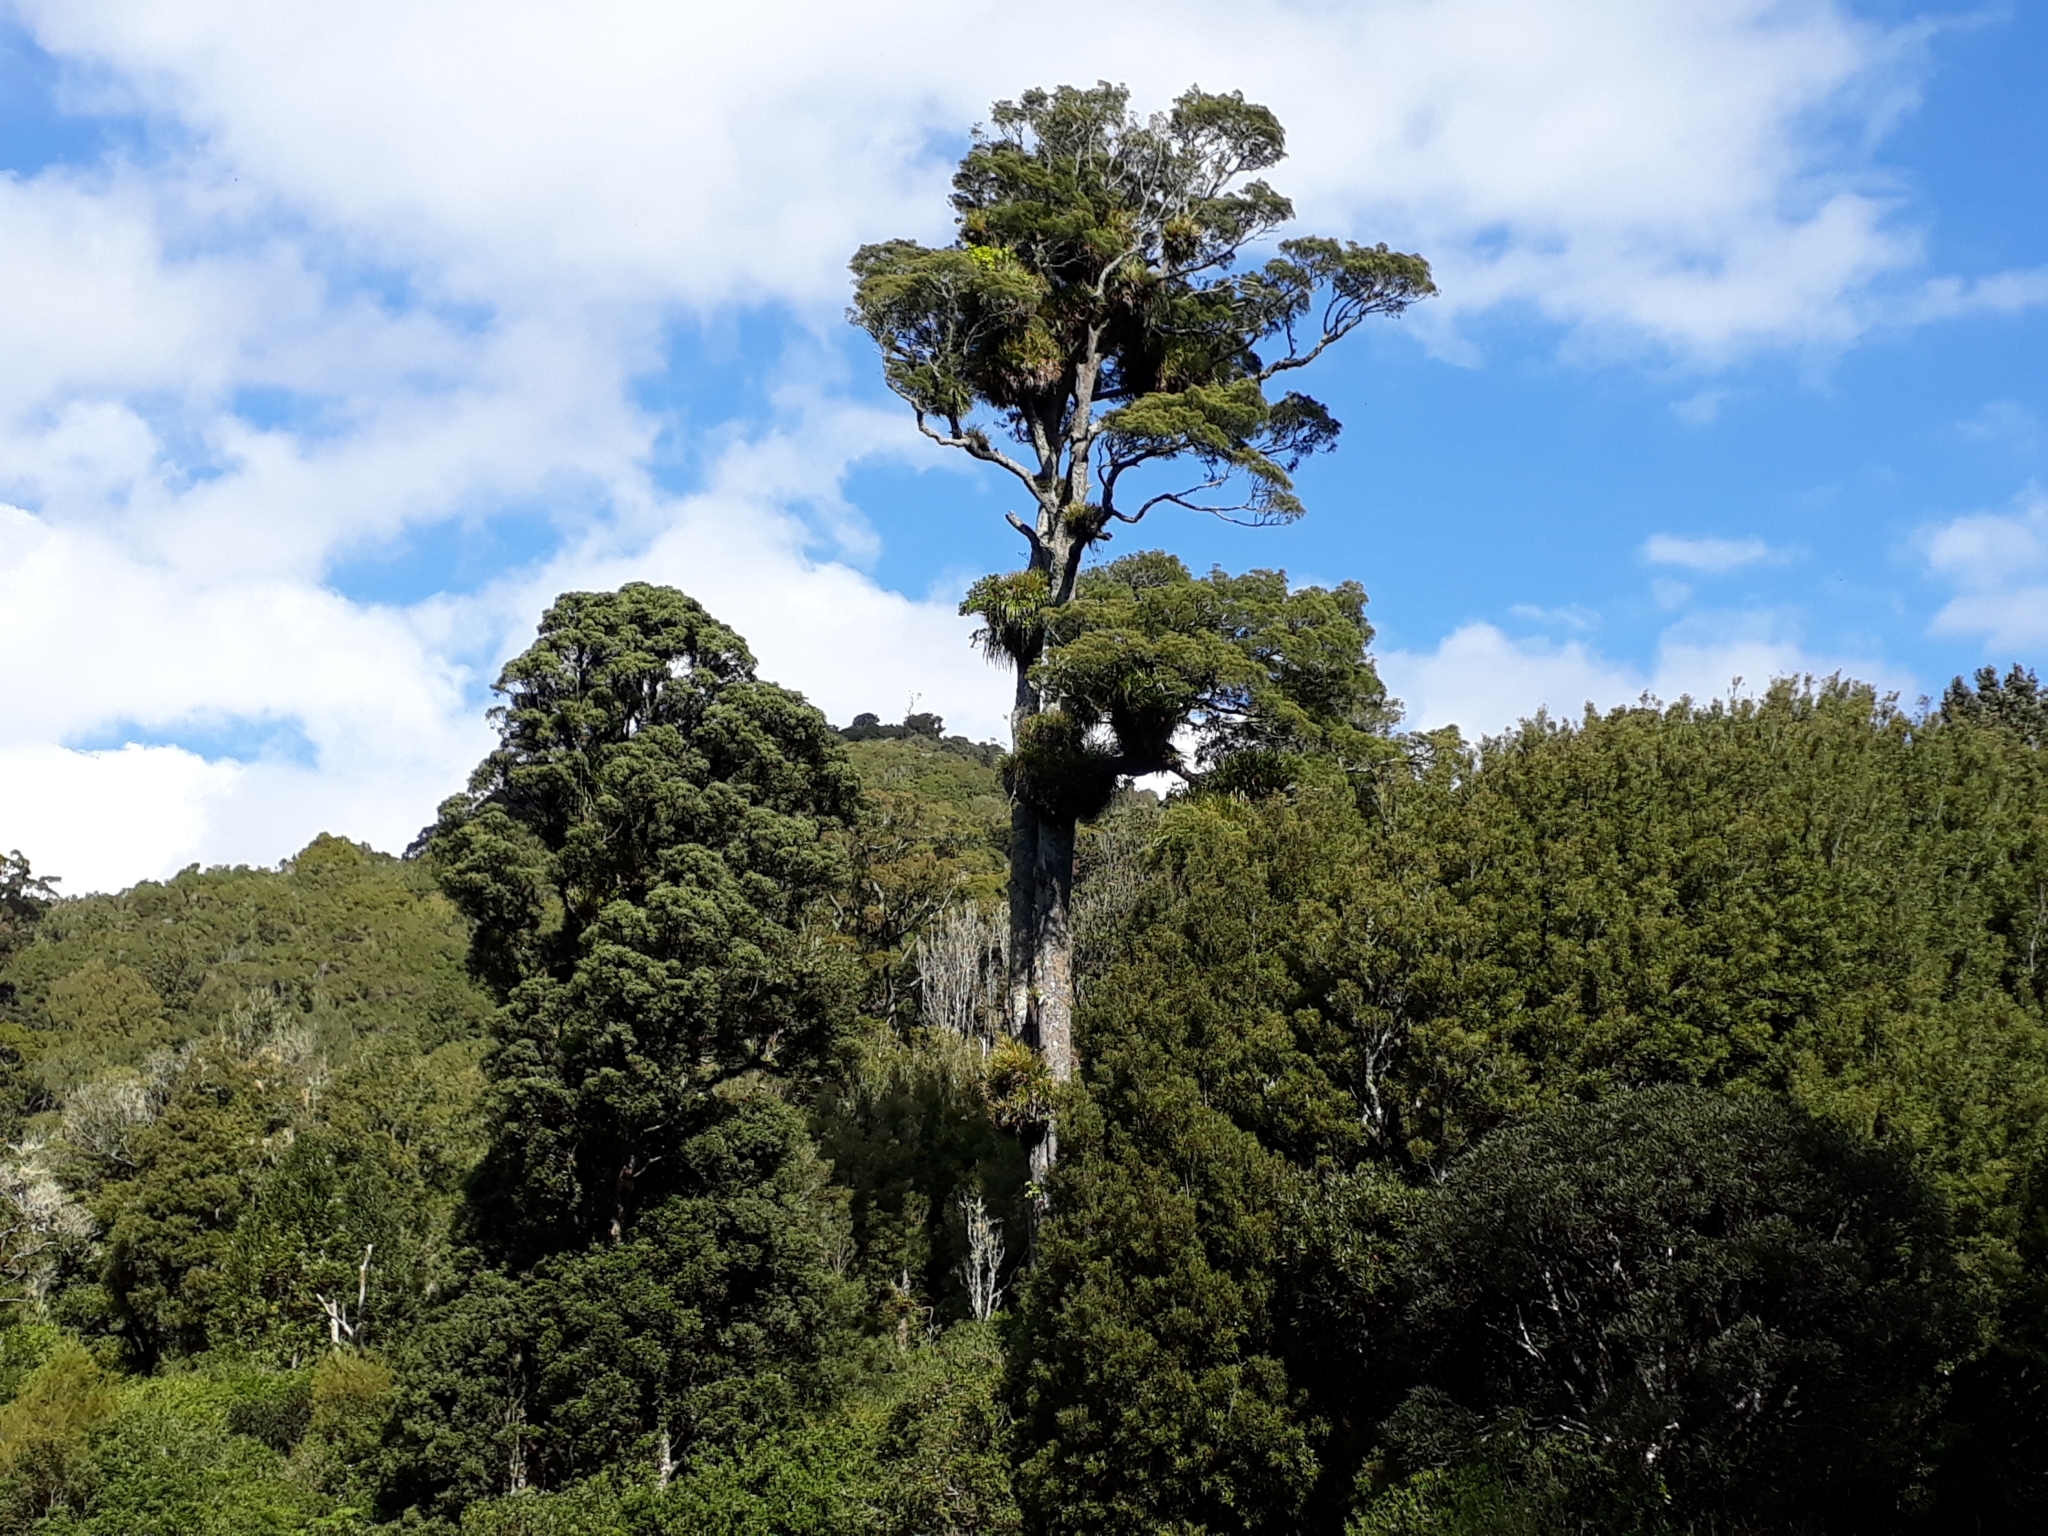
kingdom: Plantae
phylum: Tracheophyta
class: Pinopsida
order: Pinales
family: Podocarpaceae
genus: Dacrycarpus
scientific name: Dacrycarpus dacrydioides
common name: White pine
